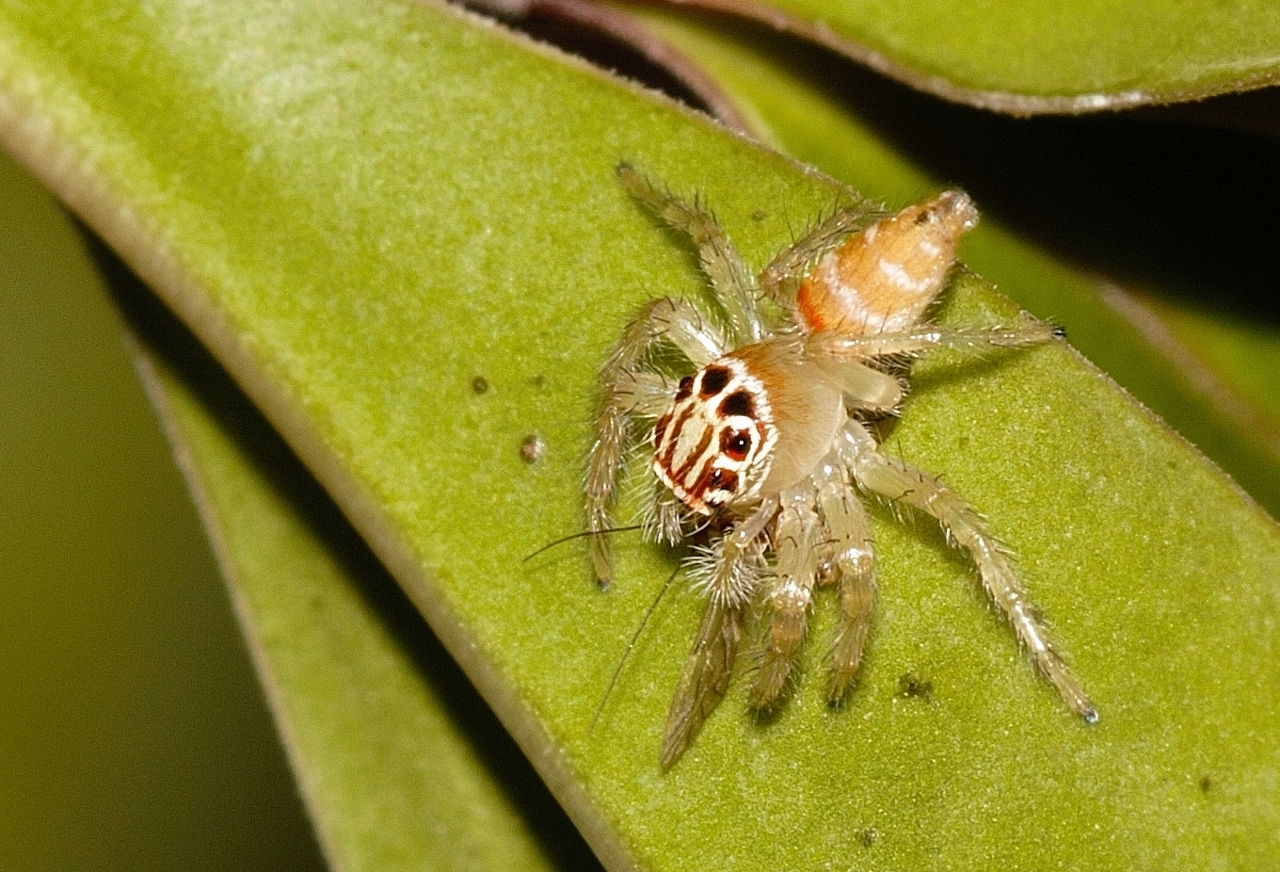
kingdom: Animalia
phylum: Arthropoda
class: Arachnida
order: Araneae
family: Salticidae
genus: Brancus
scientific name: Brancus mustelus
